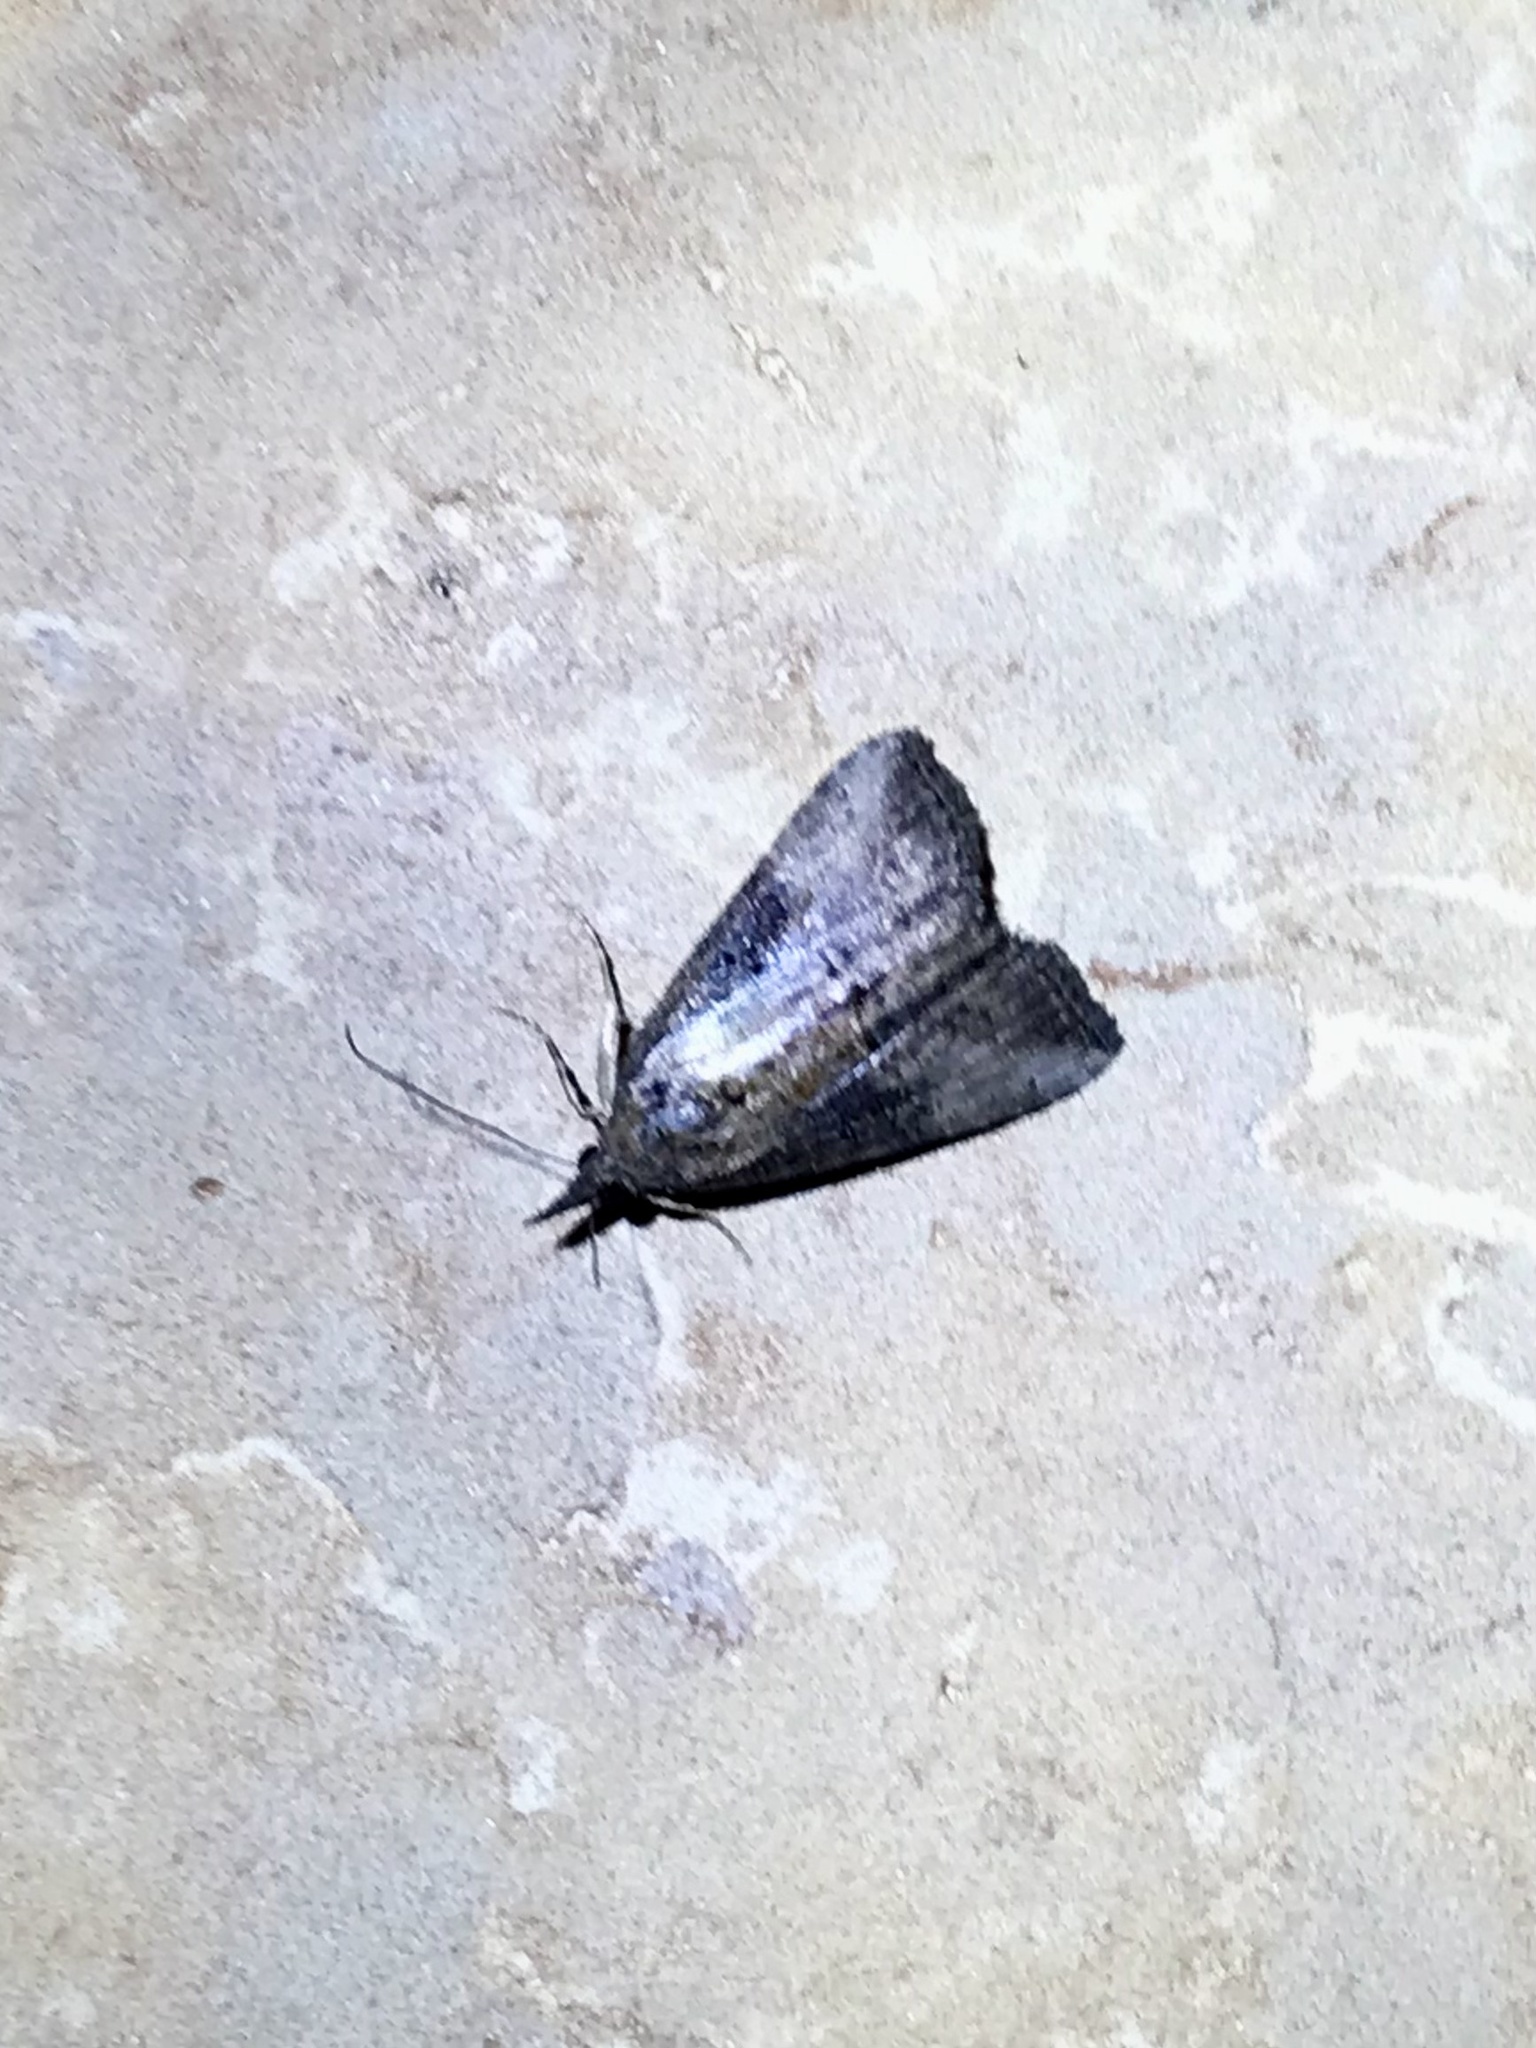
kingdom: Animalia
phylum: Arthropoda
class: Insecta
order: Lepidoptera
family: Erebidae
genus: Hypena
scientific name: Hypena scabra
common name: Green cloverworm
